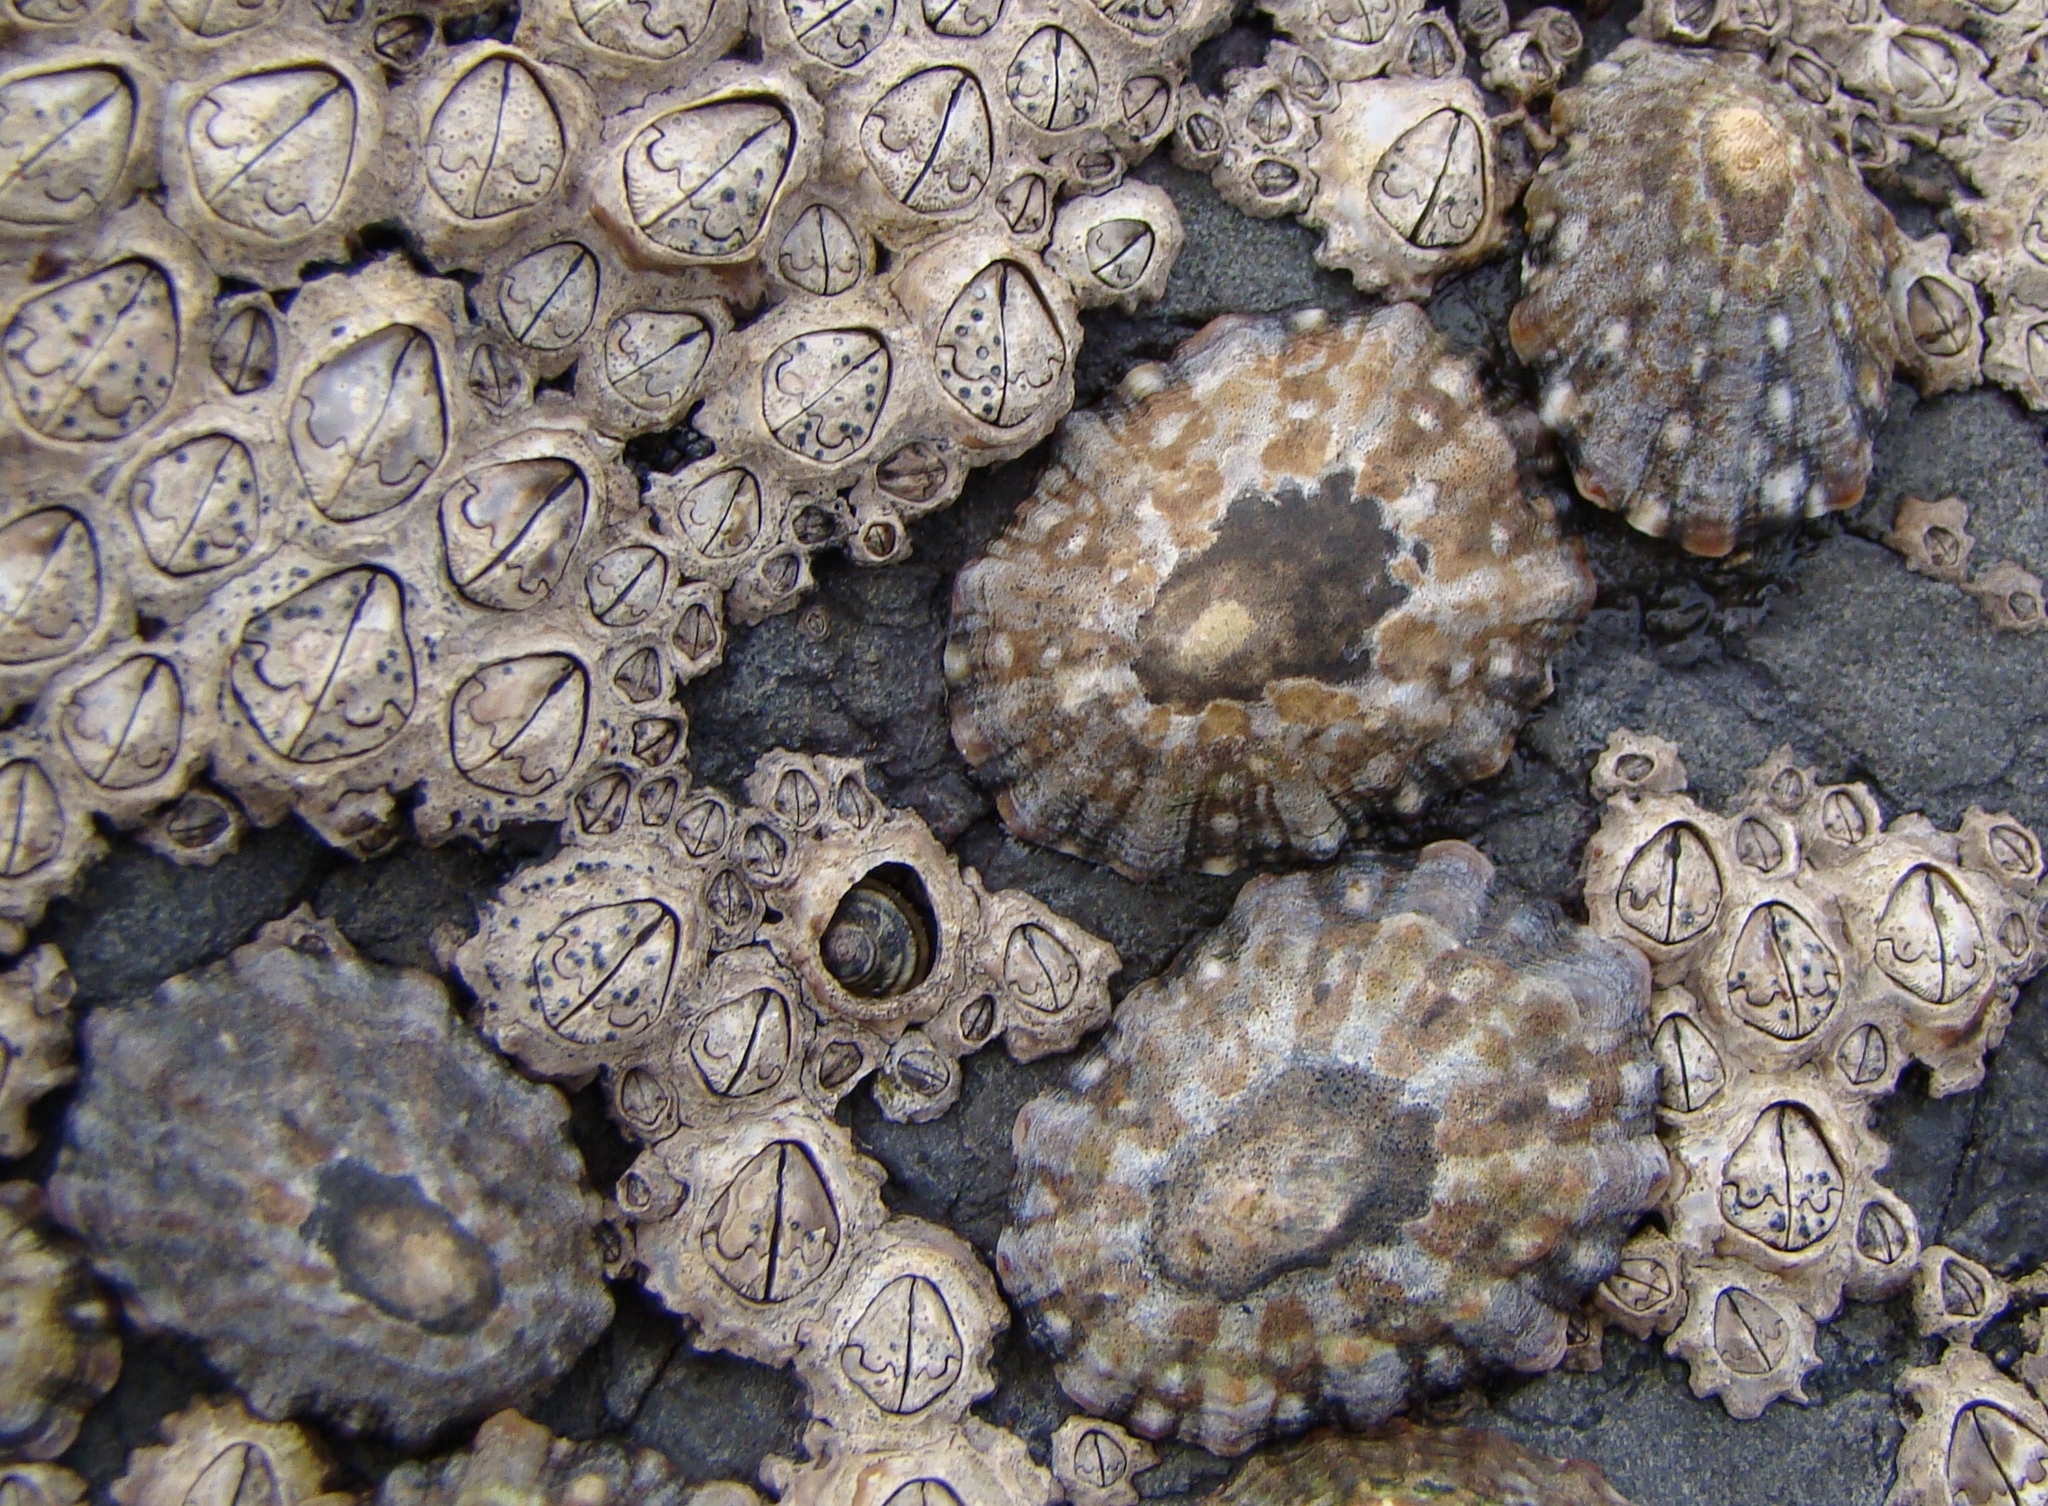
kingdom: Animalia
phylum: Mollusca
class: Gastropoda
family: Nacellidae
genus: Cellana
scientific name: Cellana ornata
